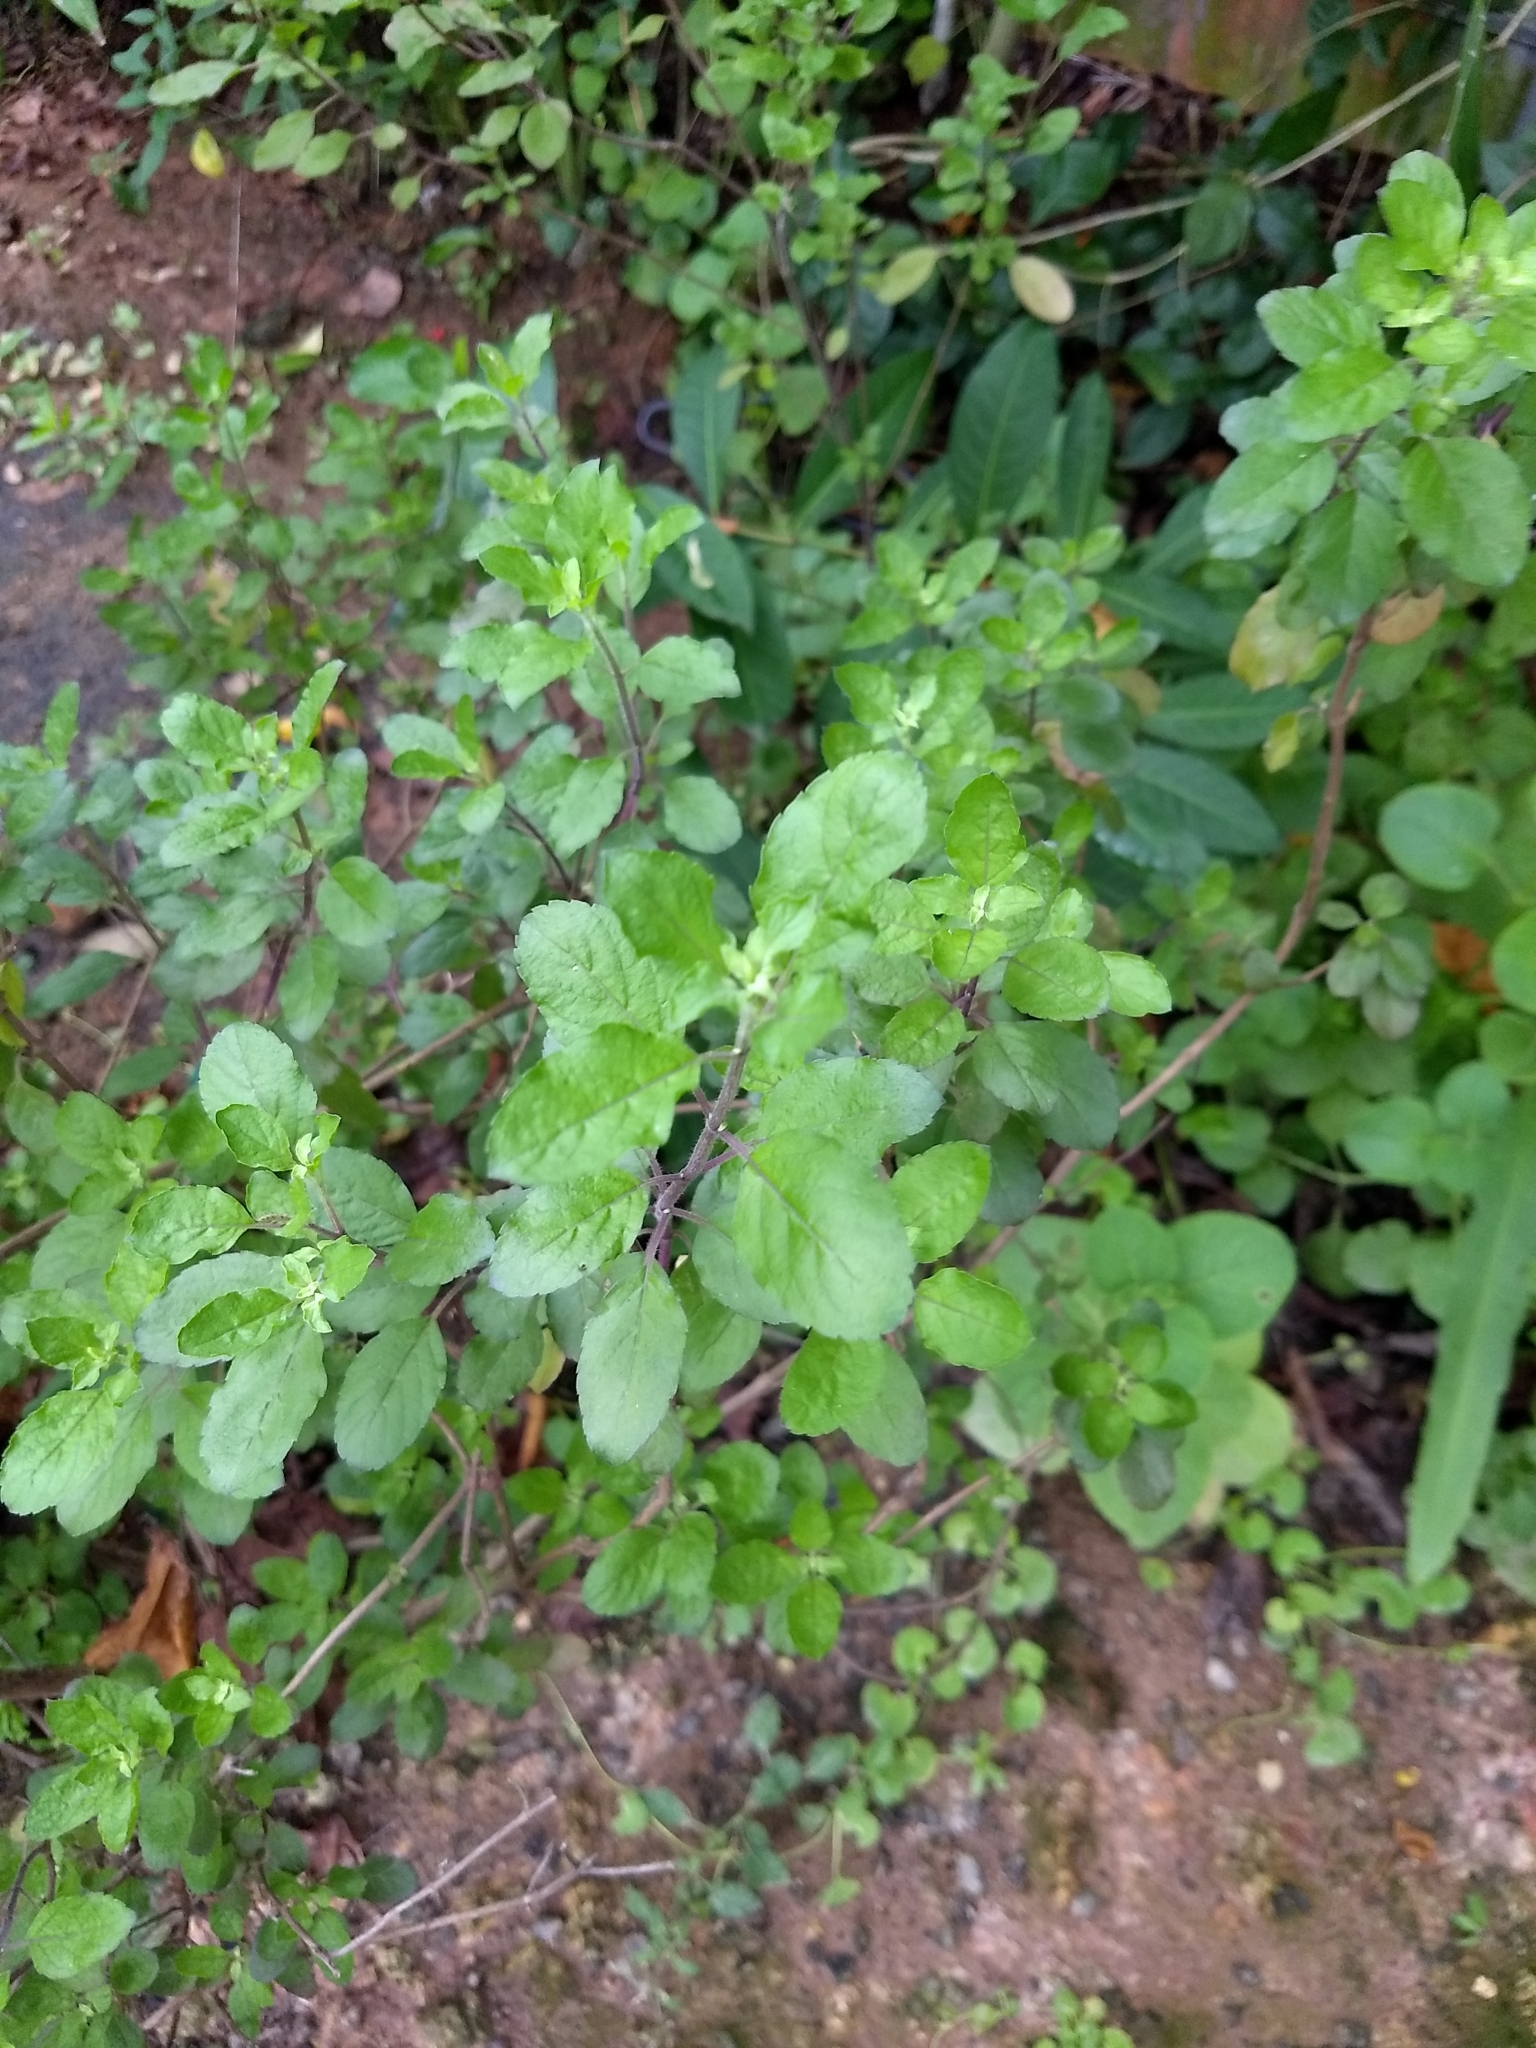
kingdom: Plantae
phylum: Tracheophyta
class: Magnoliopsida
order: Lamiales
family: Lamiaceae
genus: Ocimum
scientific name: Ocimum tenuiflorum
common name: Sacred basil
